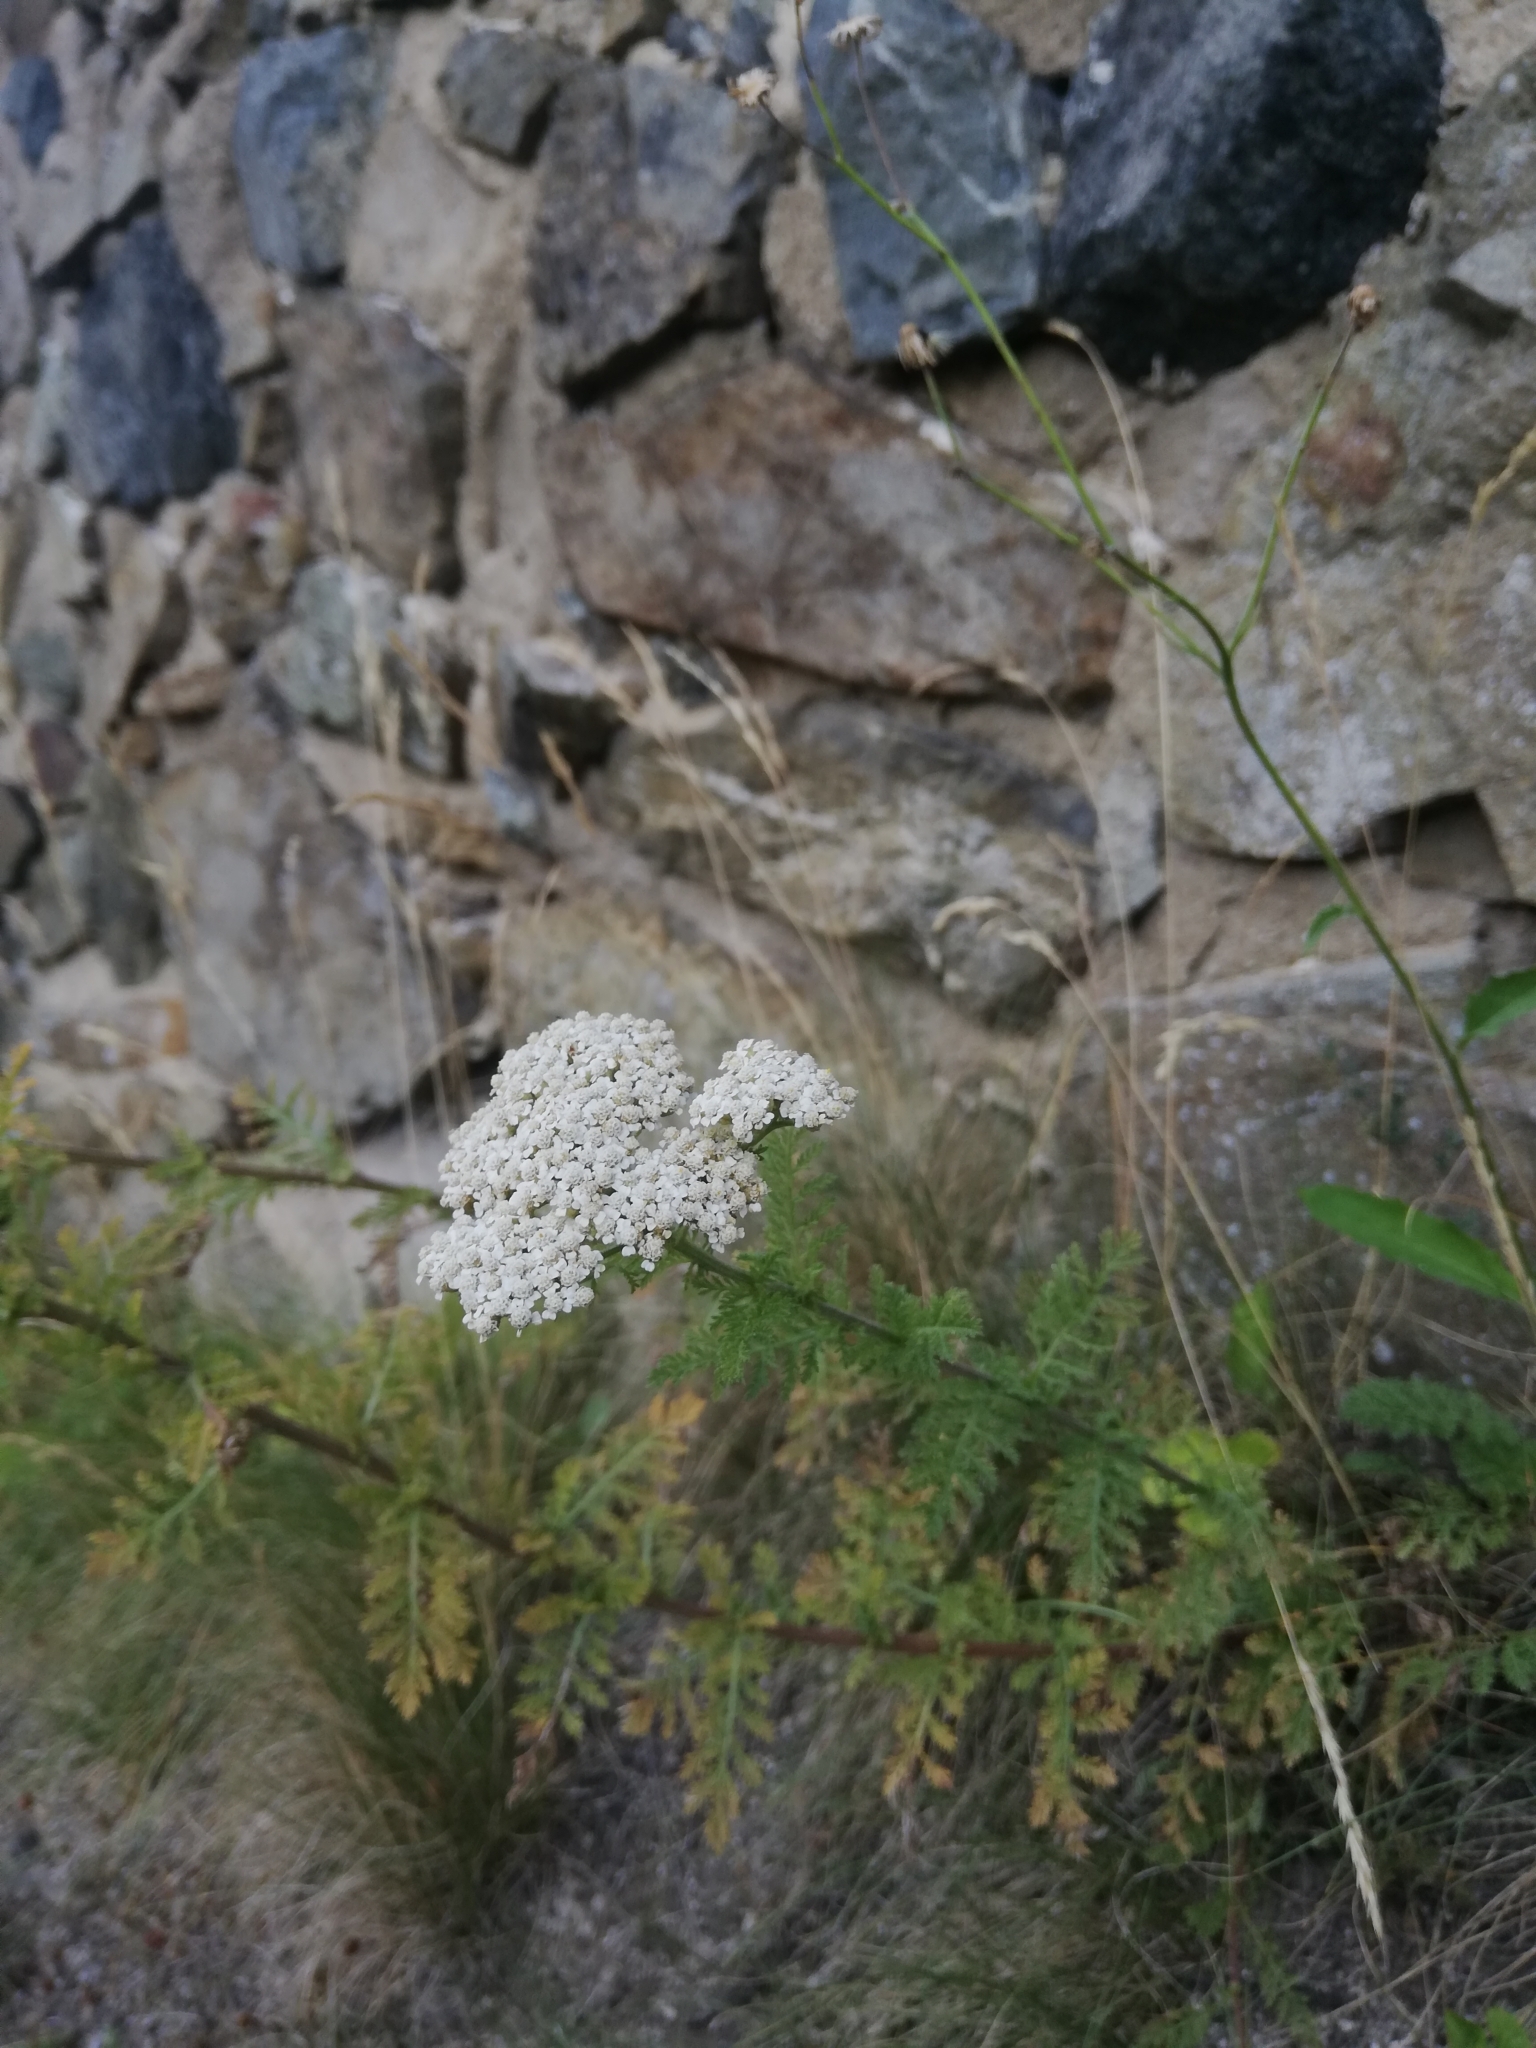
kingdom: Plantae
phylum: Tracheophyta
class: Magnoliopsida
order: Asterales
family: Asteraceae
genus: Achillea
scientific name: Achillea millefolium
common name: Yarrow
